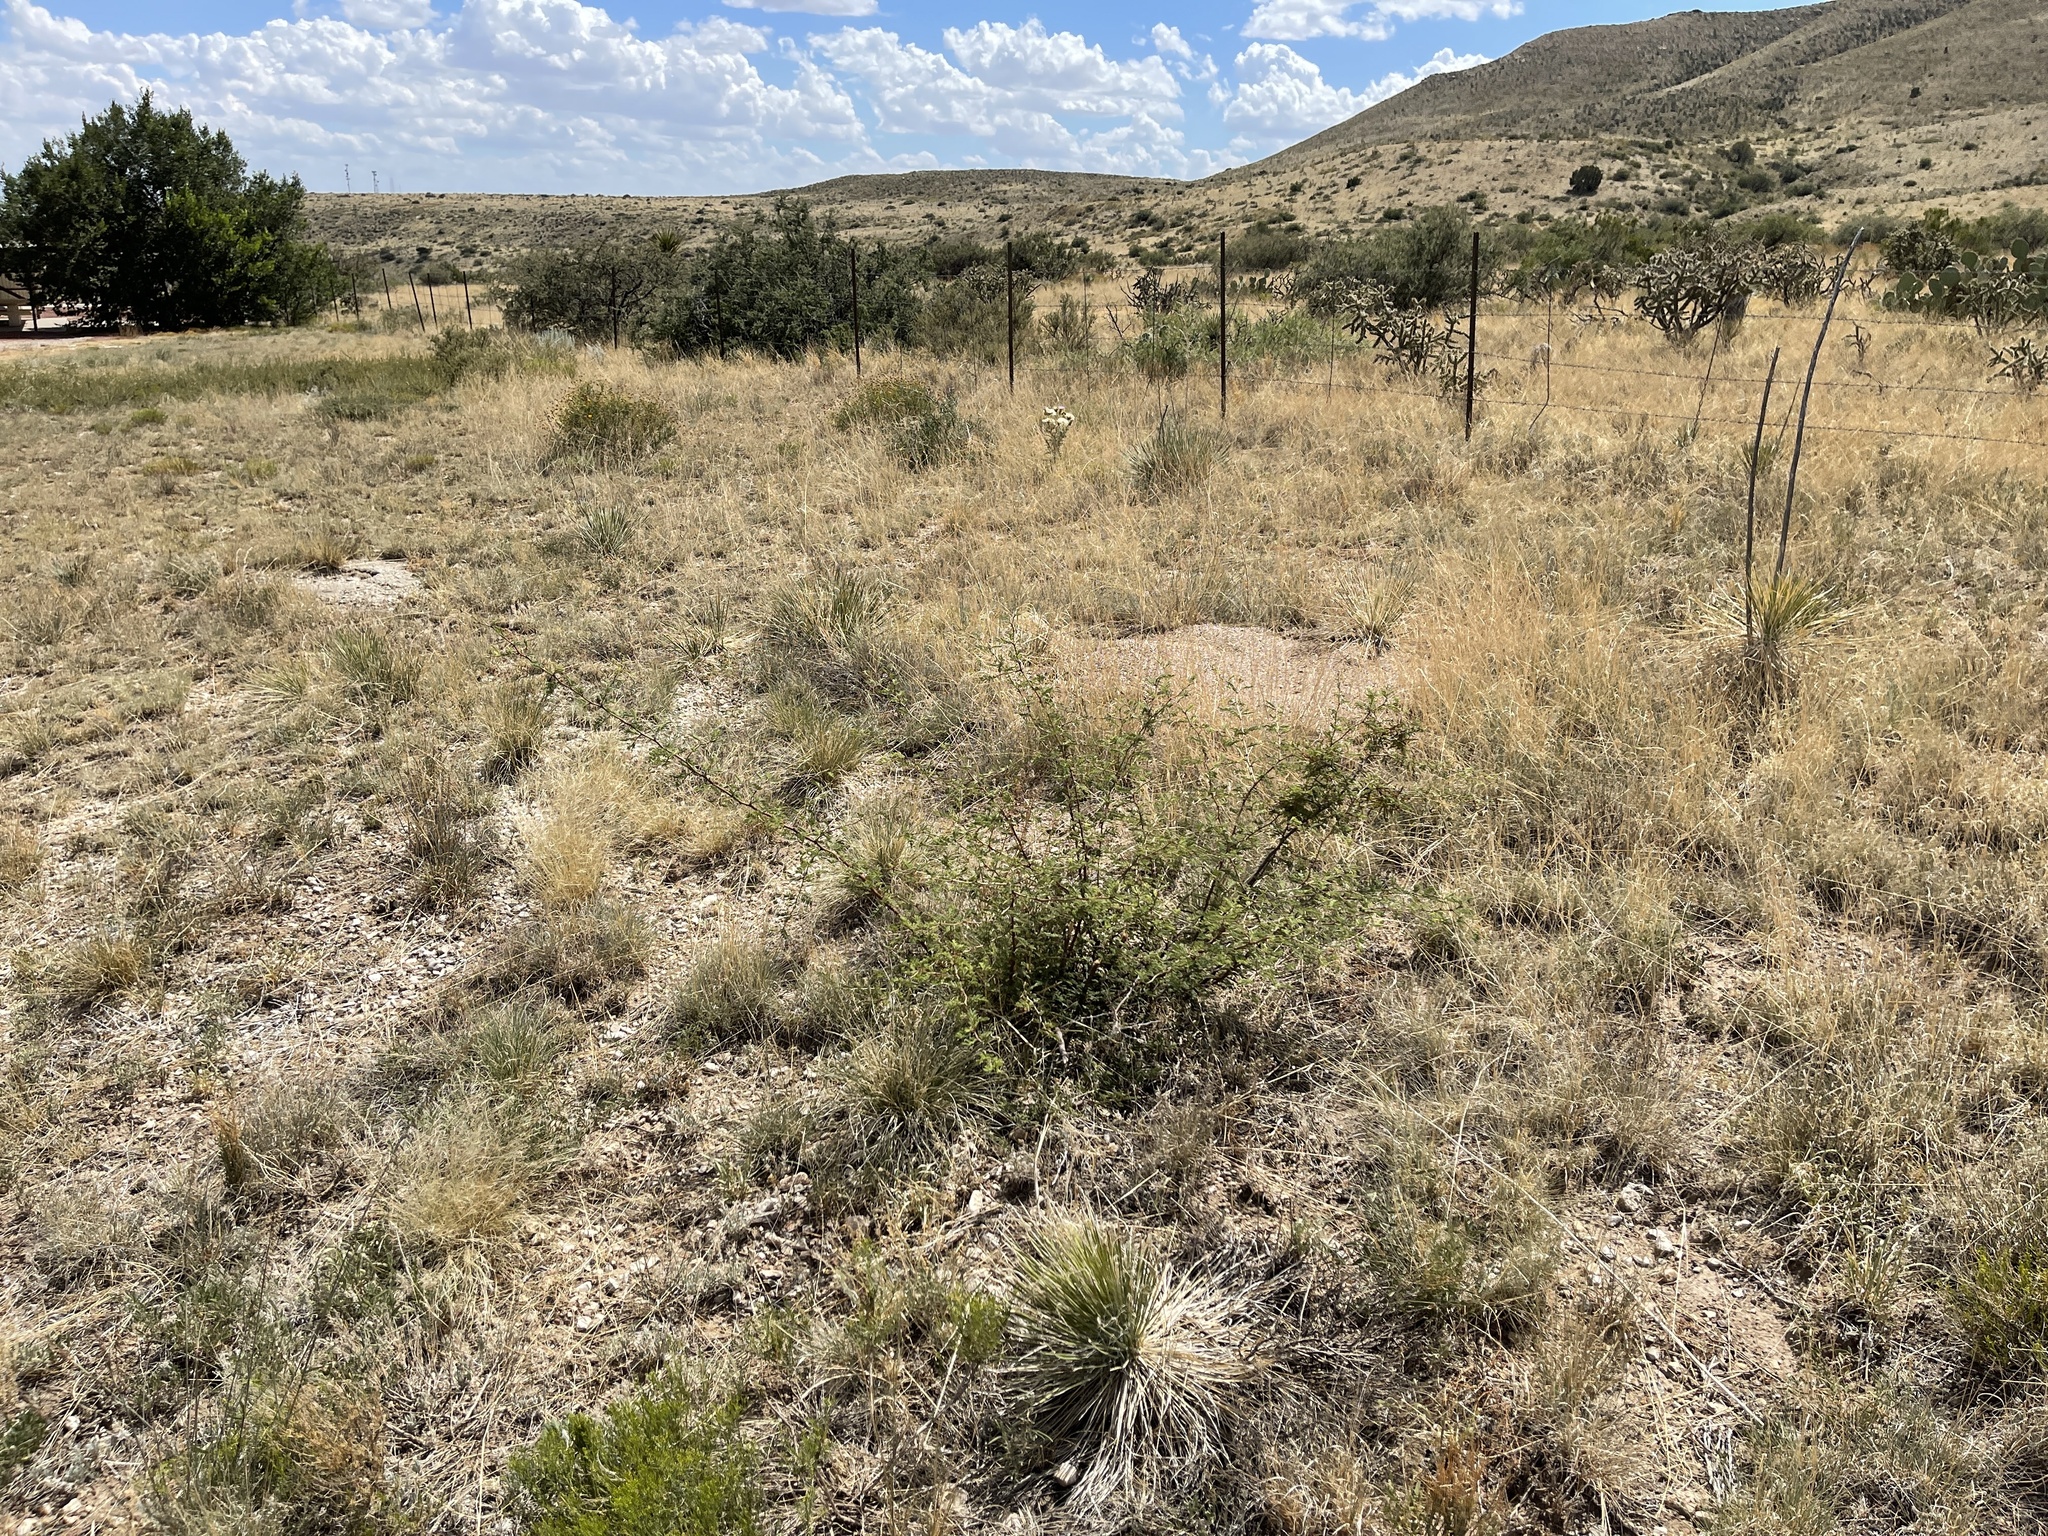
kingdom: Plantae
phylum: Tracheophyta
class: Magnoliopsida
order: Fabales
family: Fabaceae
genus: Mimosa
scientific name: Mimosa aculeaticarpa
